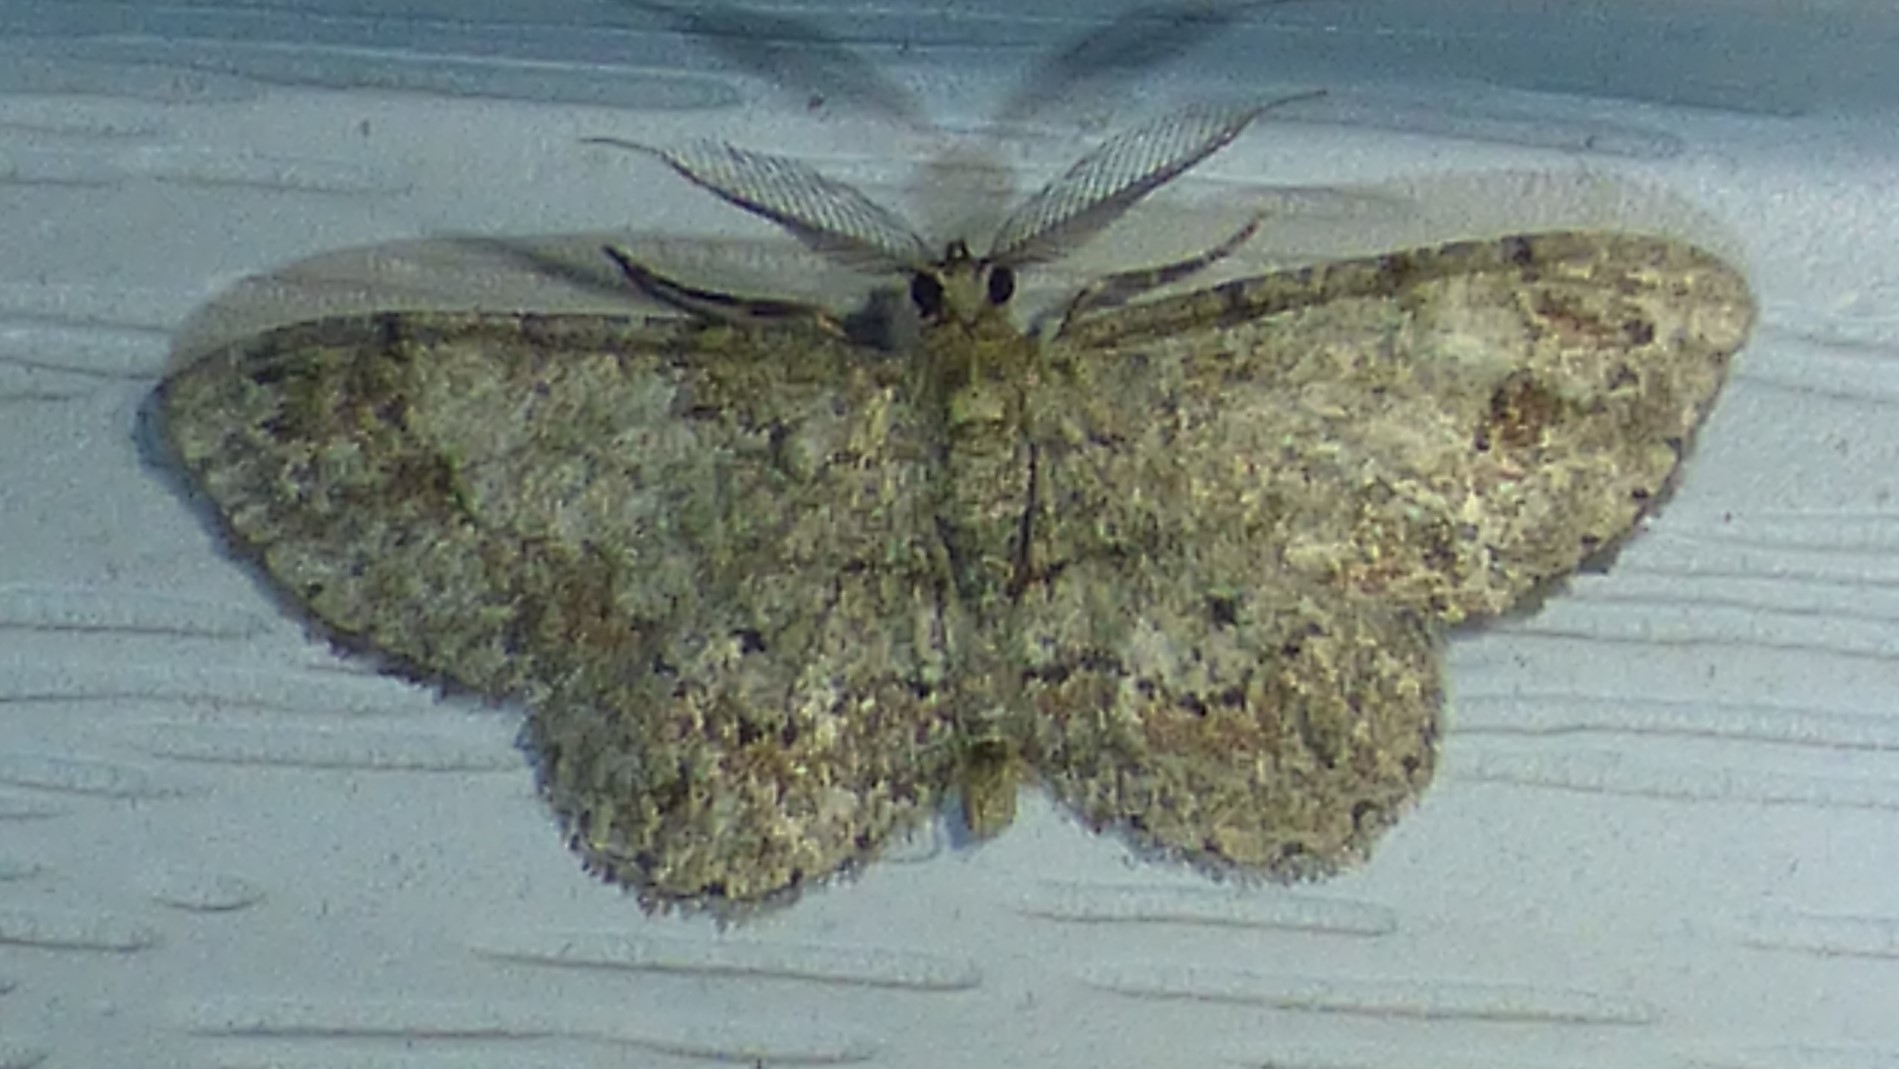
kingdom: Animalia
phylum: Arthropoda
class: Insecta
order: Lepidoptera
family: Geometridae
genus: Glenoides
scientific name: Glenoides texanaria
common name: Texas gray
